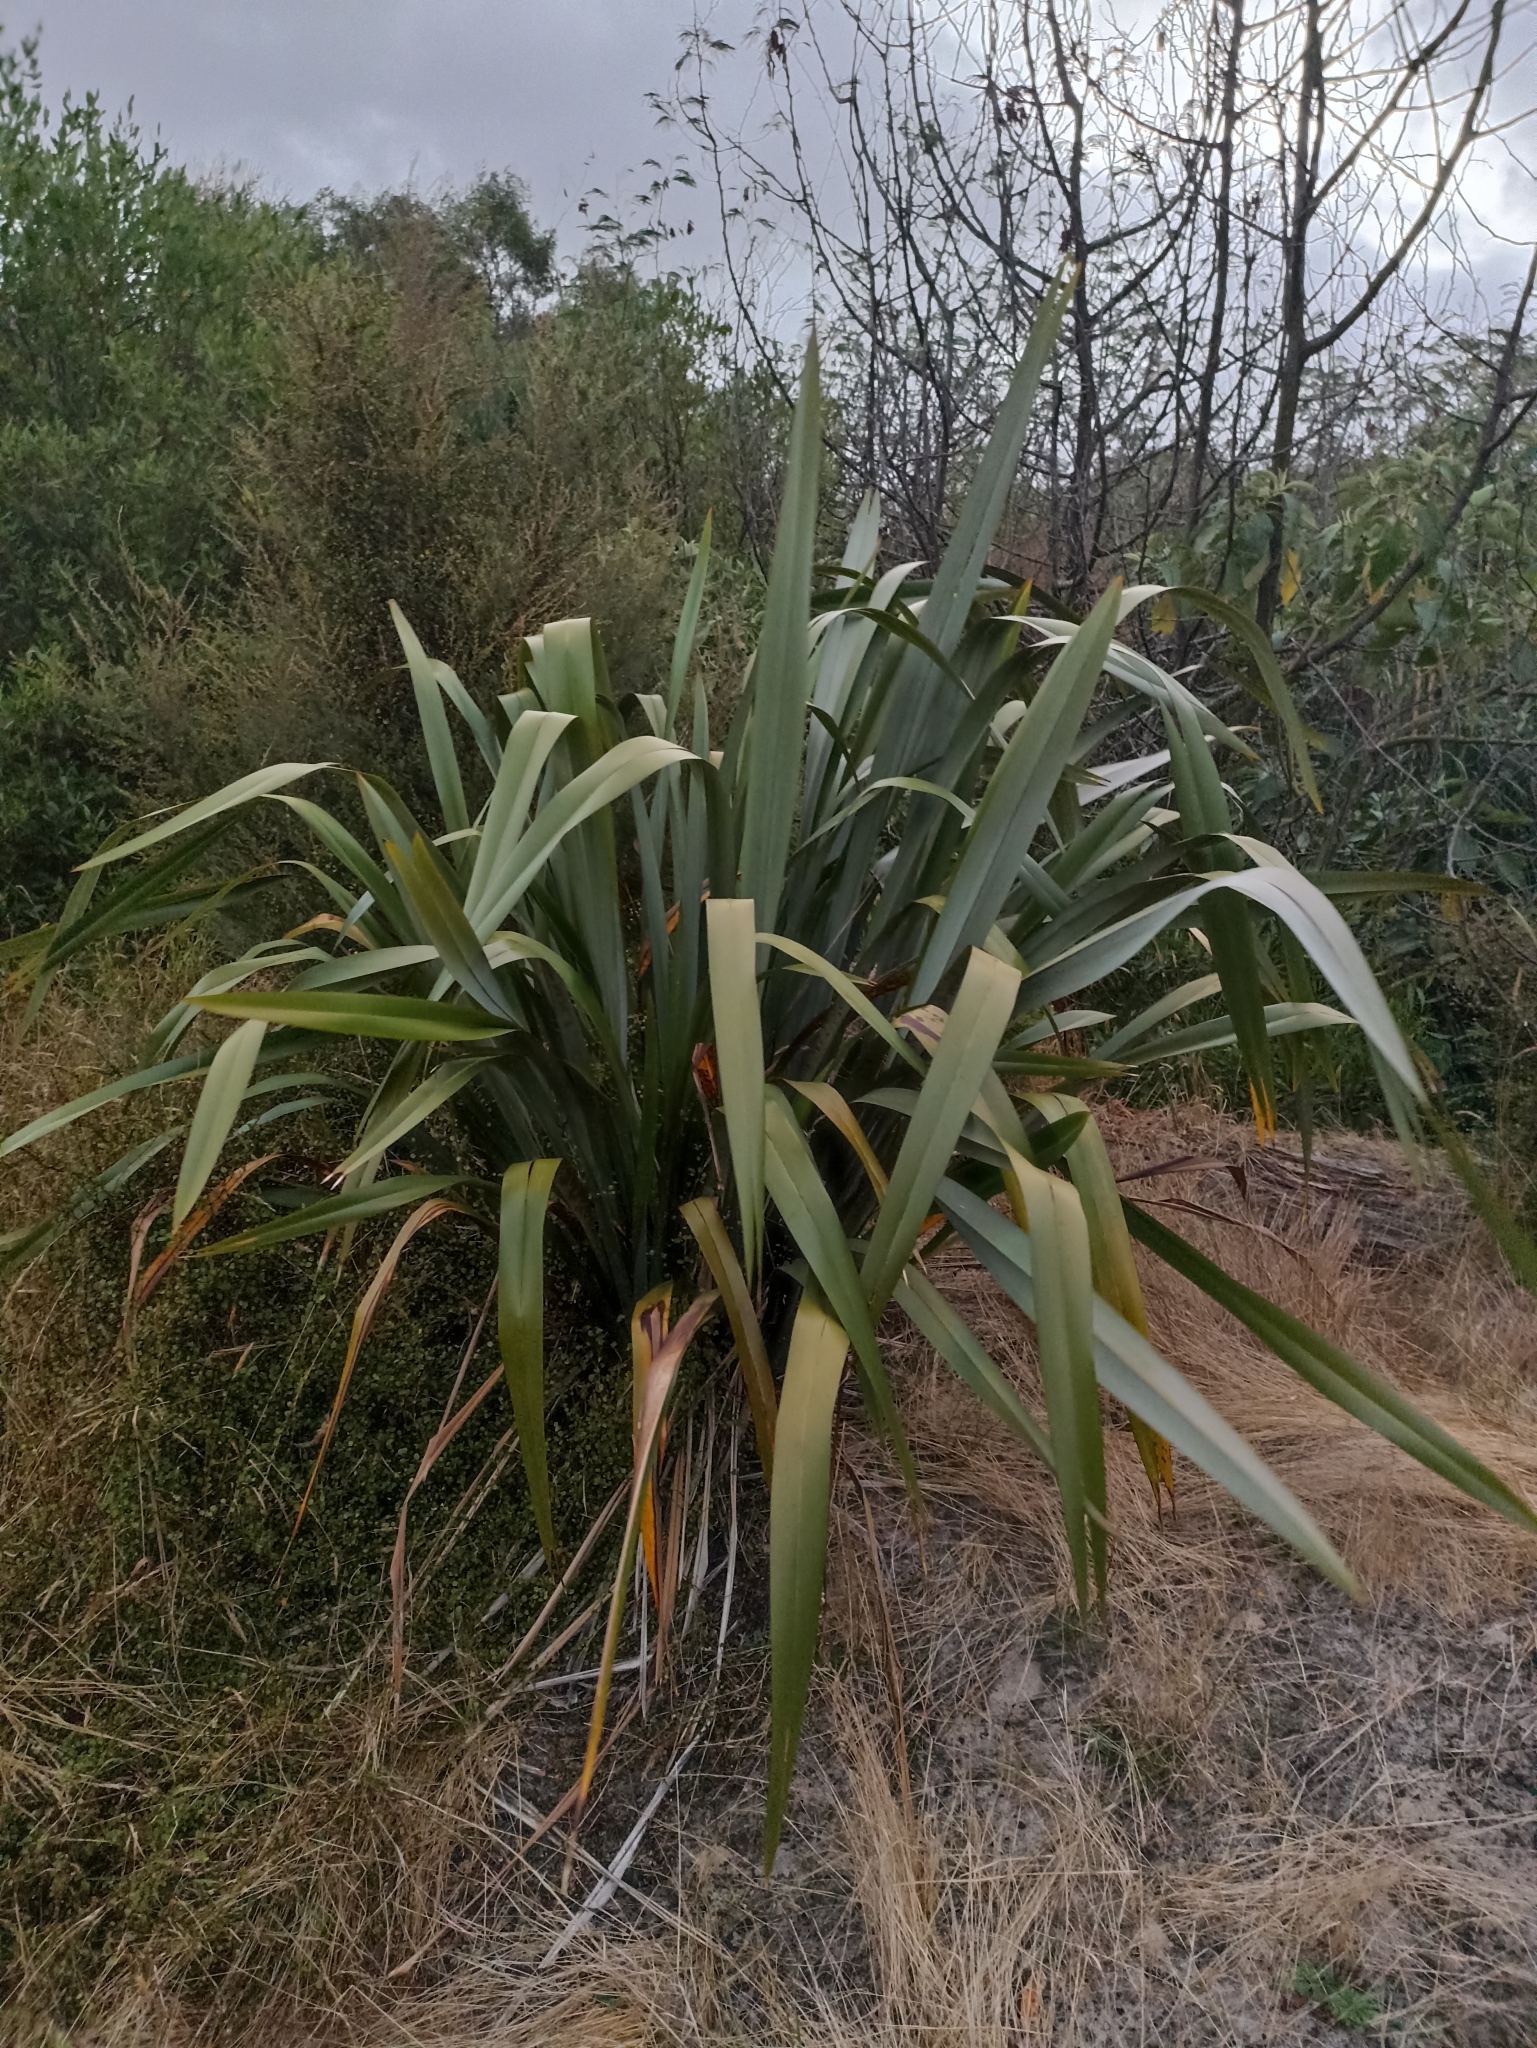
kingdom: Plantae
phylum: Tracheophyta
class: Liliopsida
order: Asparagales
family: Asphodelaceae
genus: Phormium
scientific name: Phormium tenax
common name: New zealand flax
